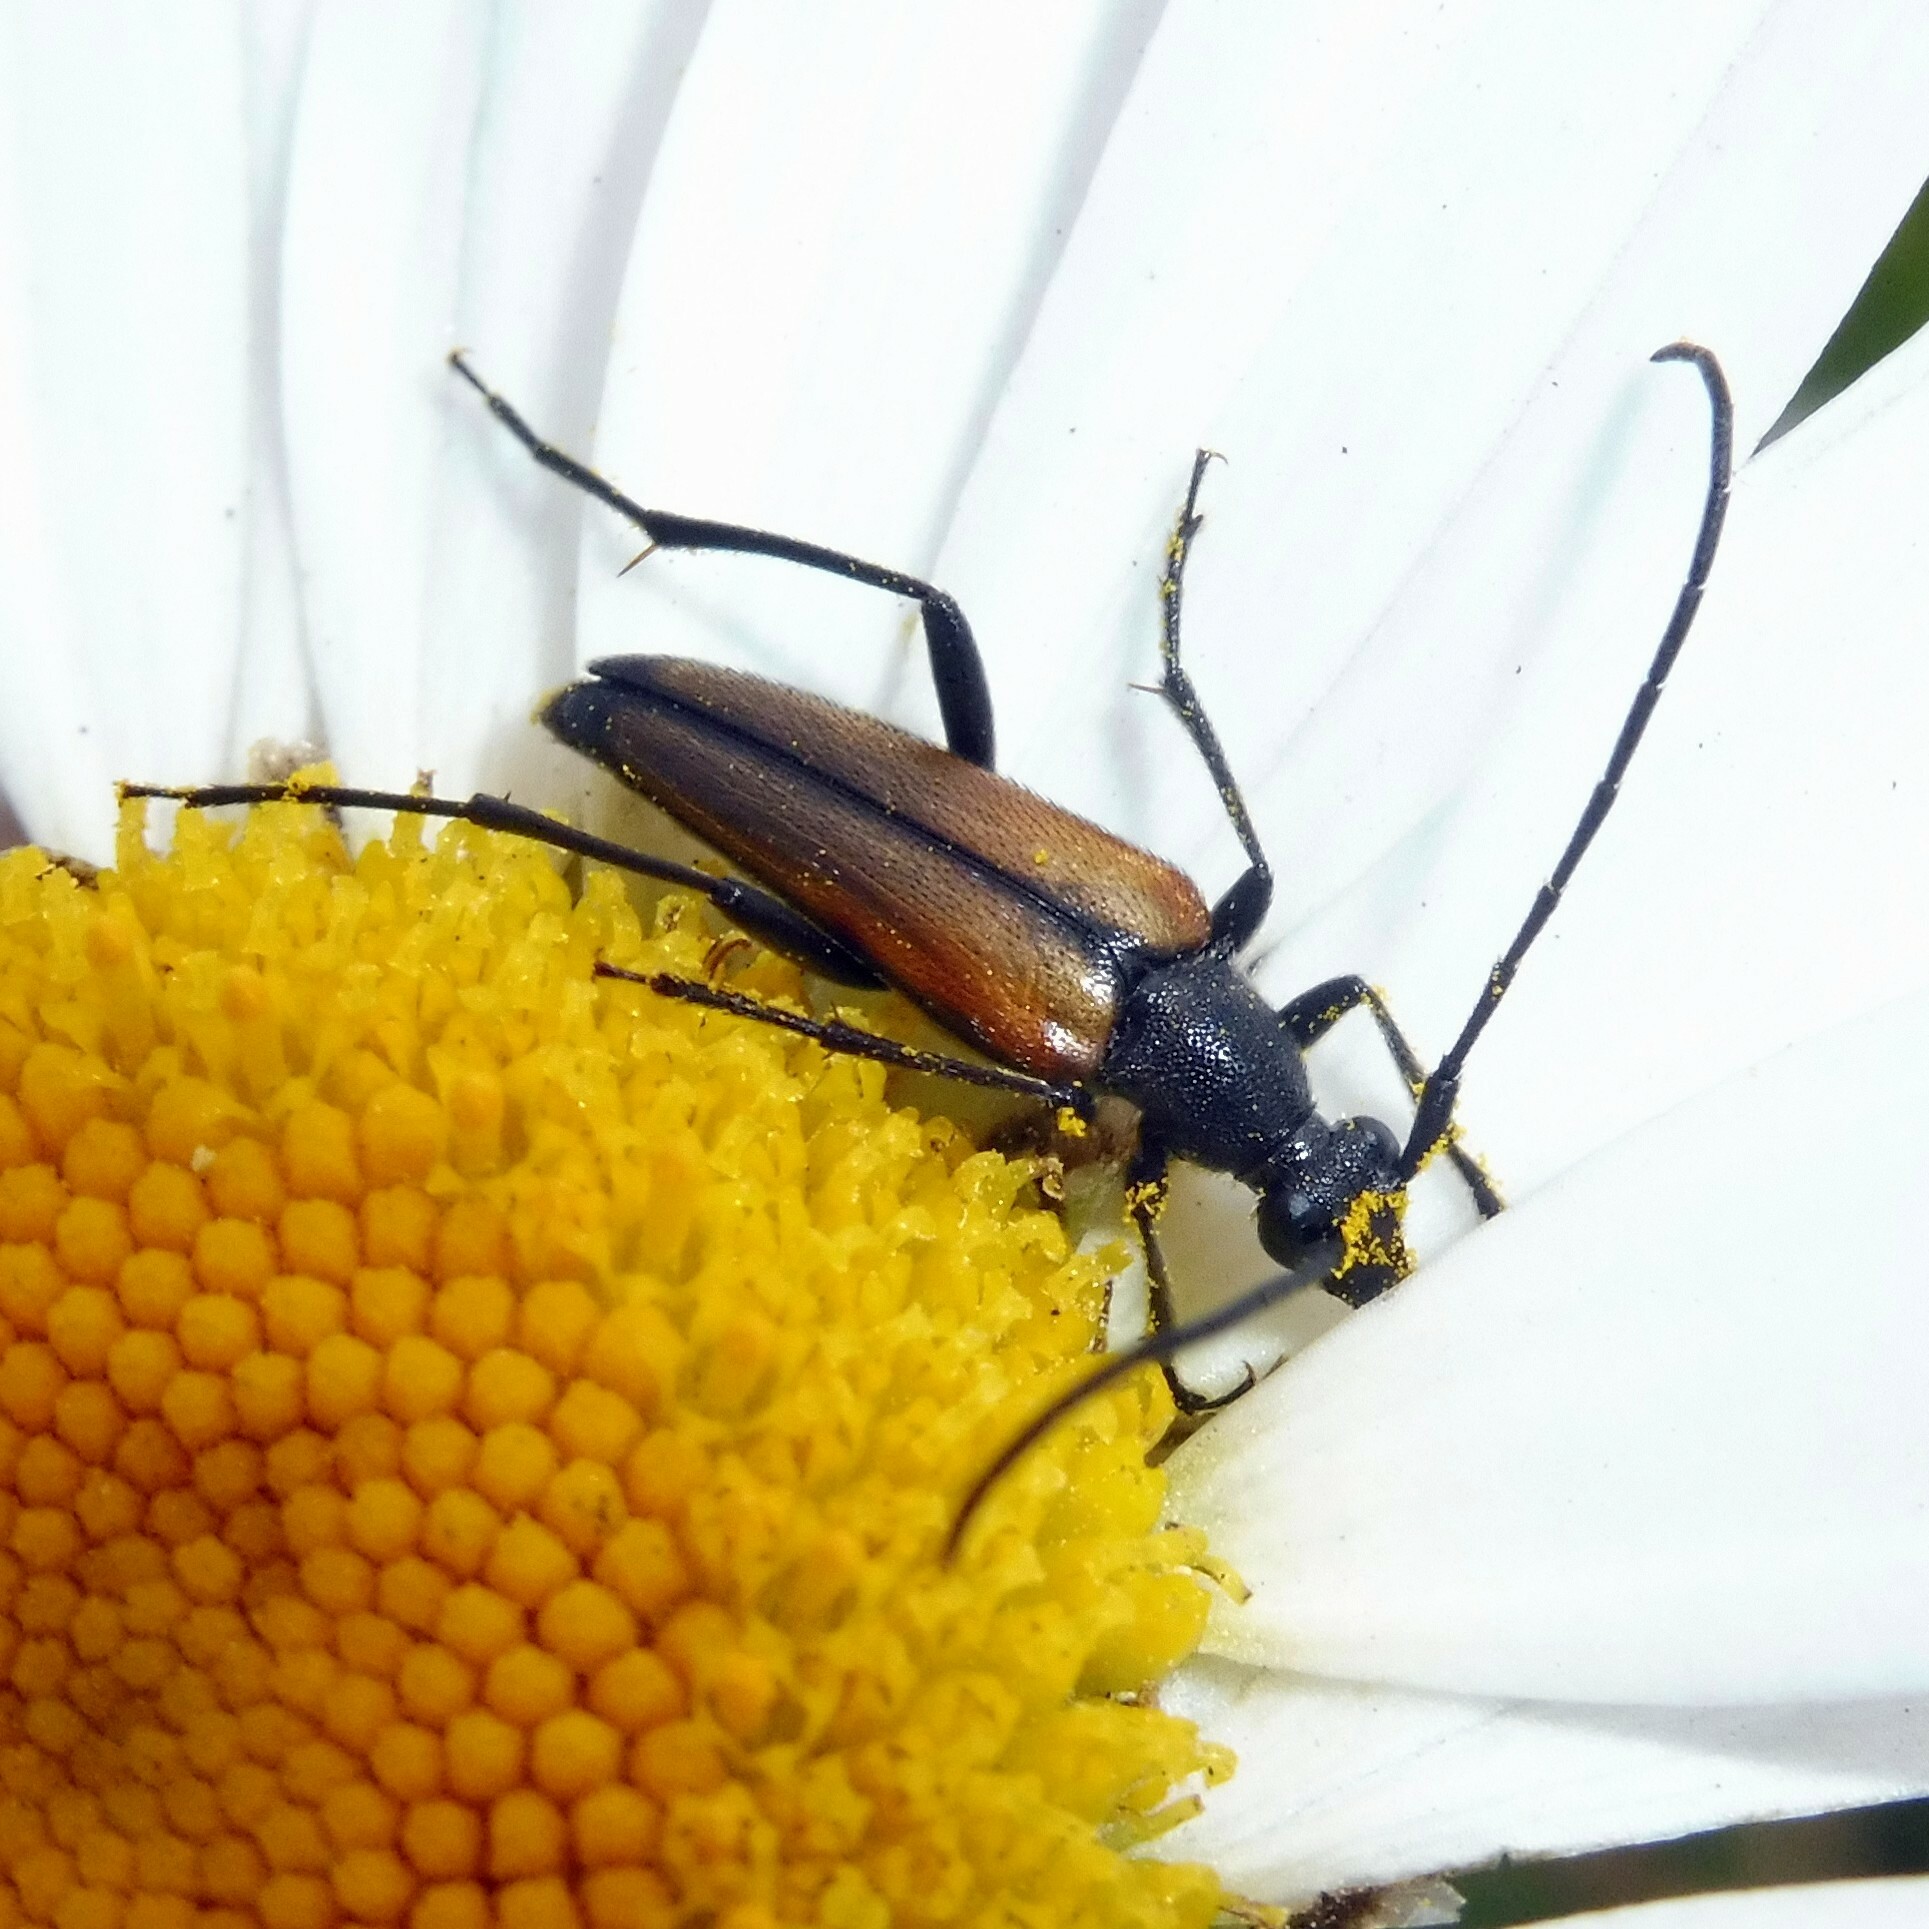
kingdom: Animalia
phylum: Arthropoda
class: Insecta
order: Coleoptera
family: Cerambycidae
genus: Stenurella
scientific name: Stenurella melanura
